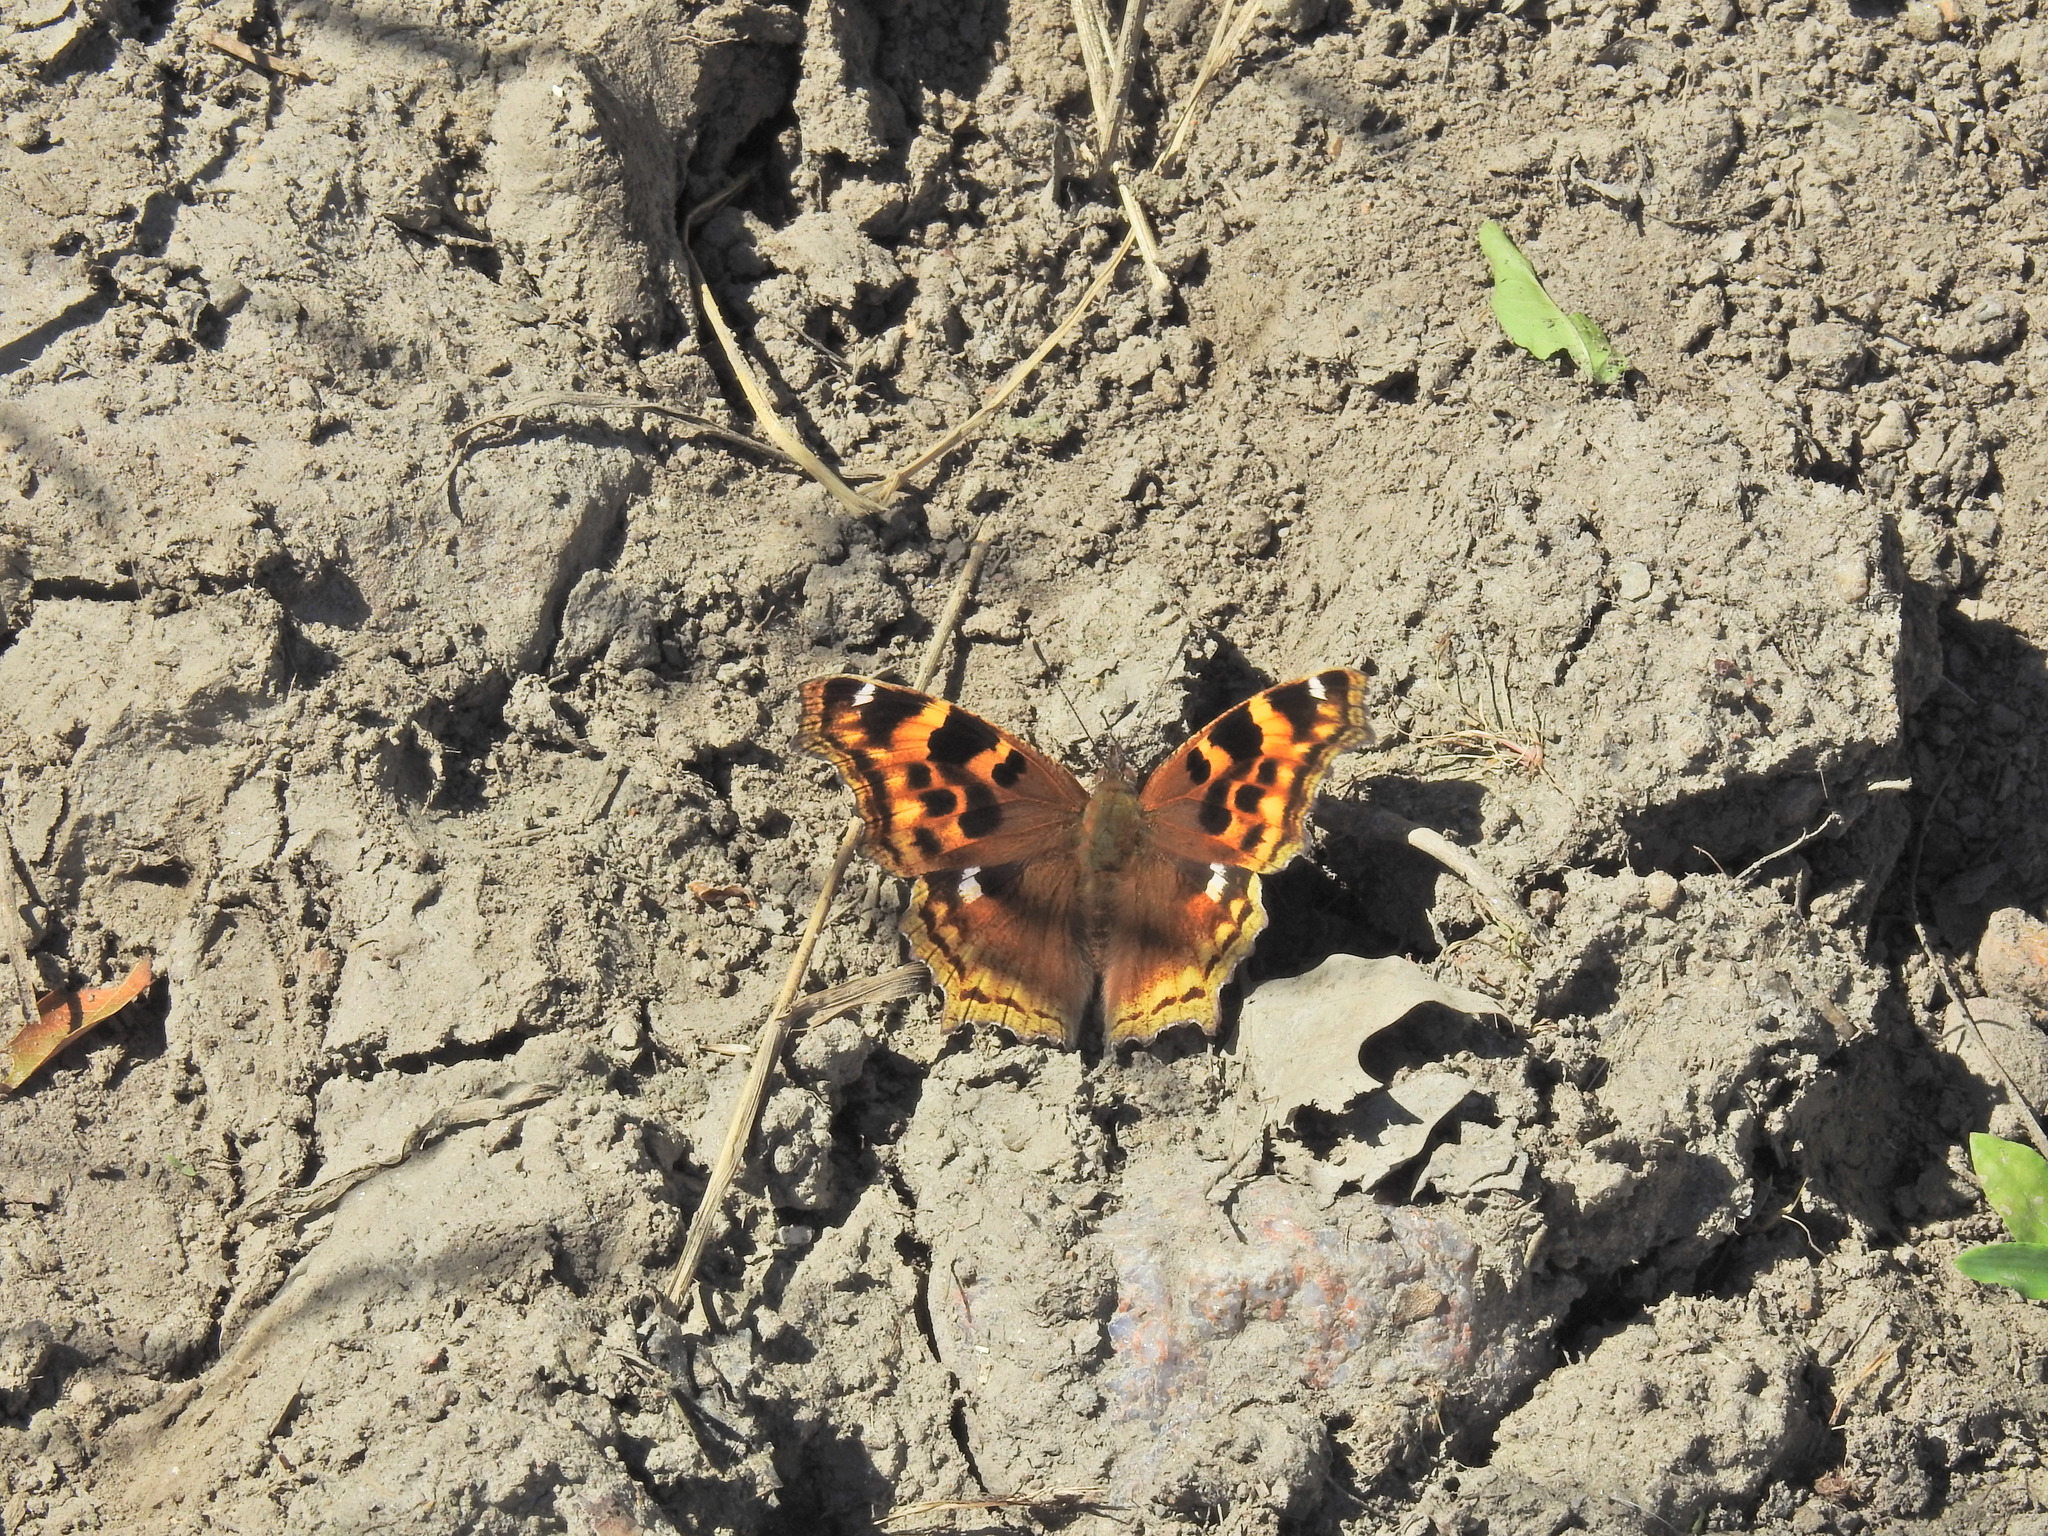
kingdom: Animalia
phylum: Arthropoda
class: Insecta
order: Lepidoptera
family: Nymphalidae
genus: Polygonia
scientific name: Polygonia vaualbum
